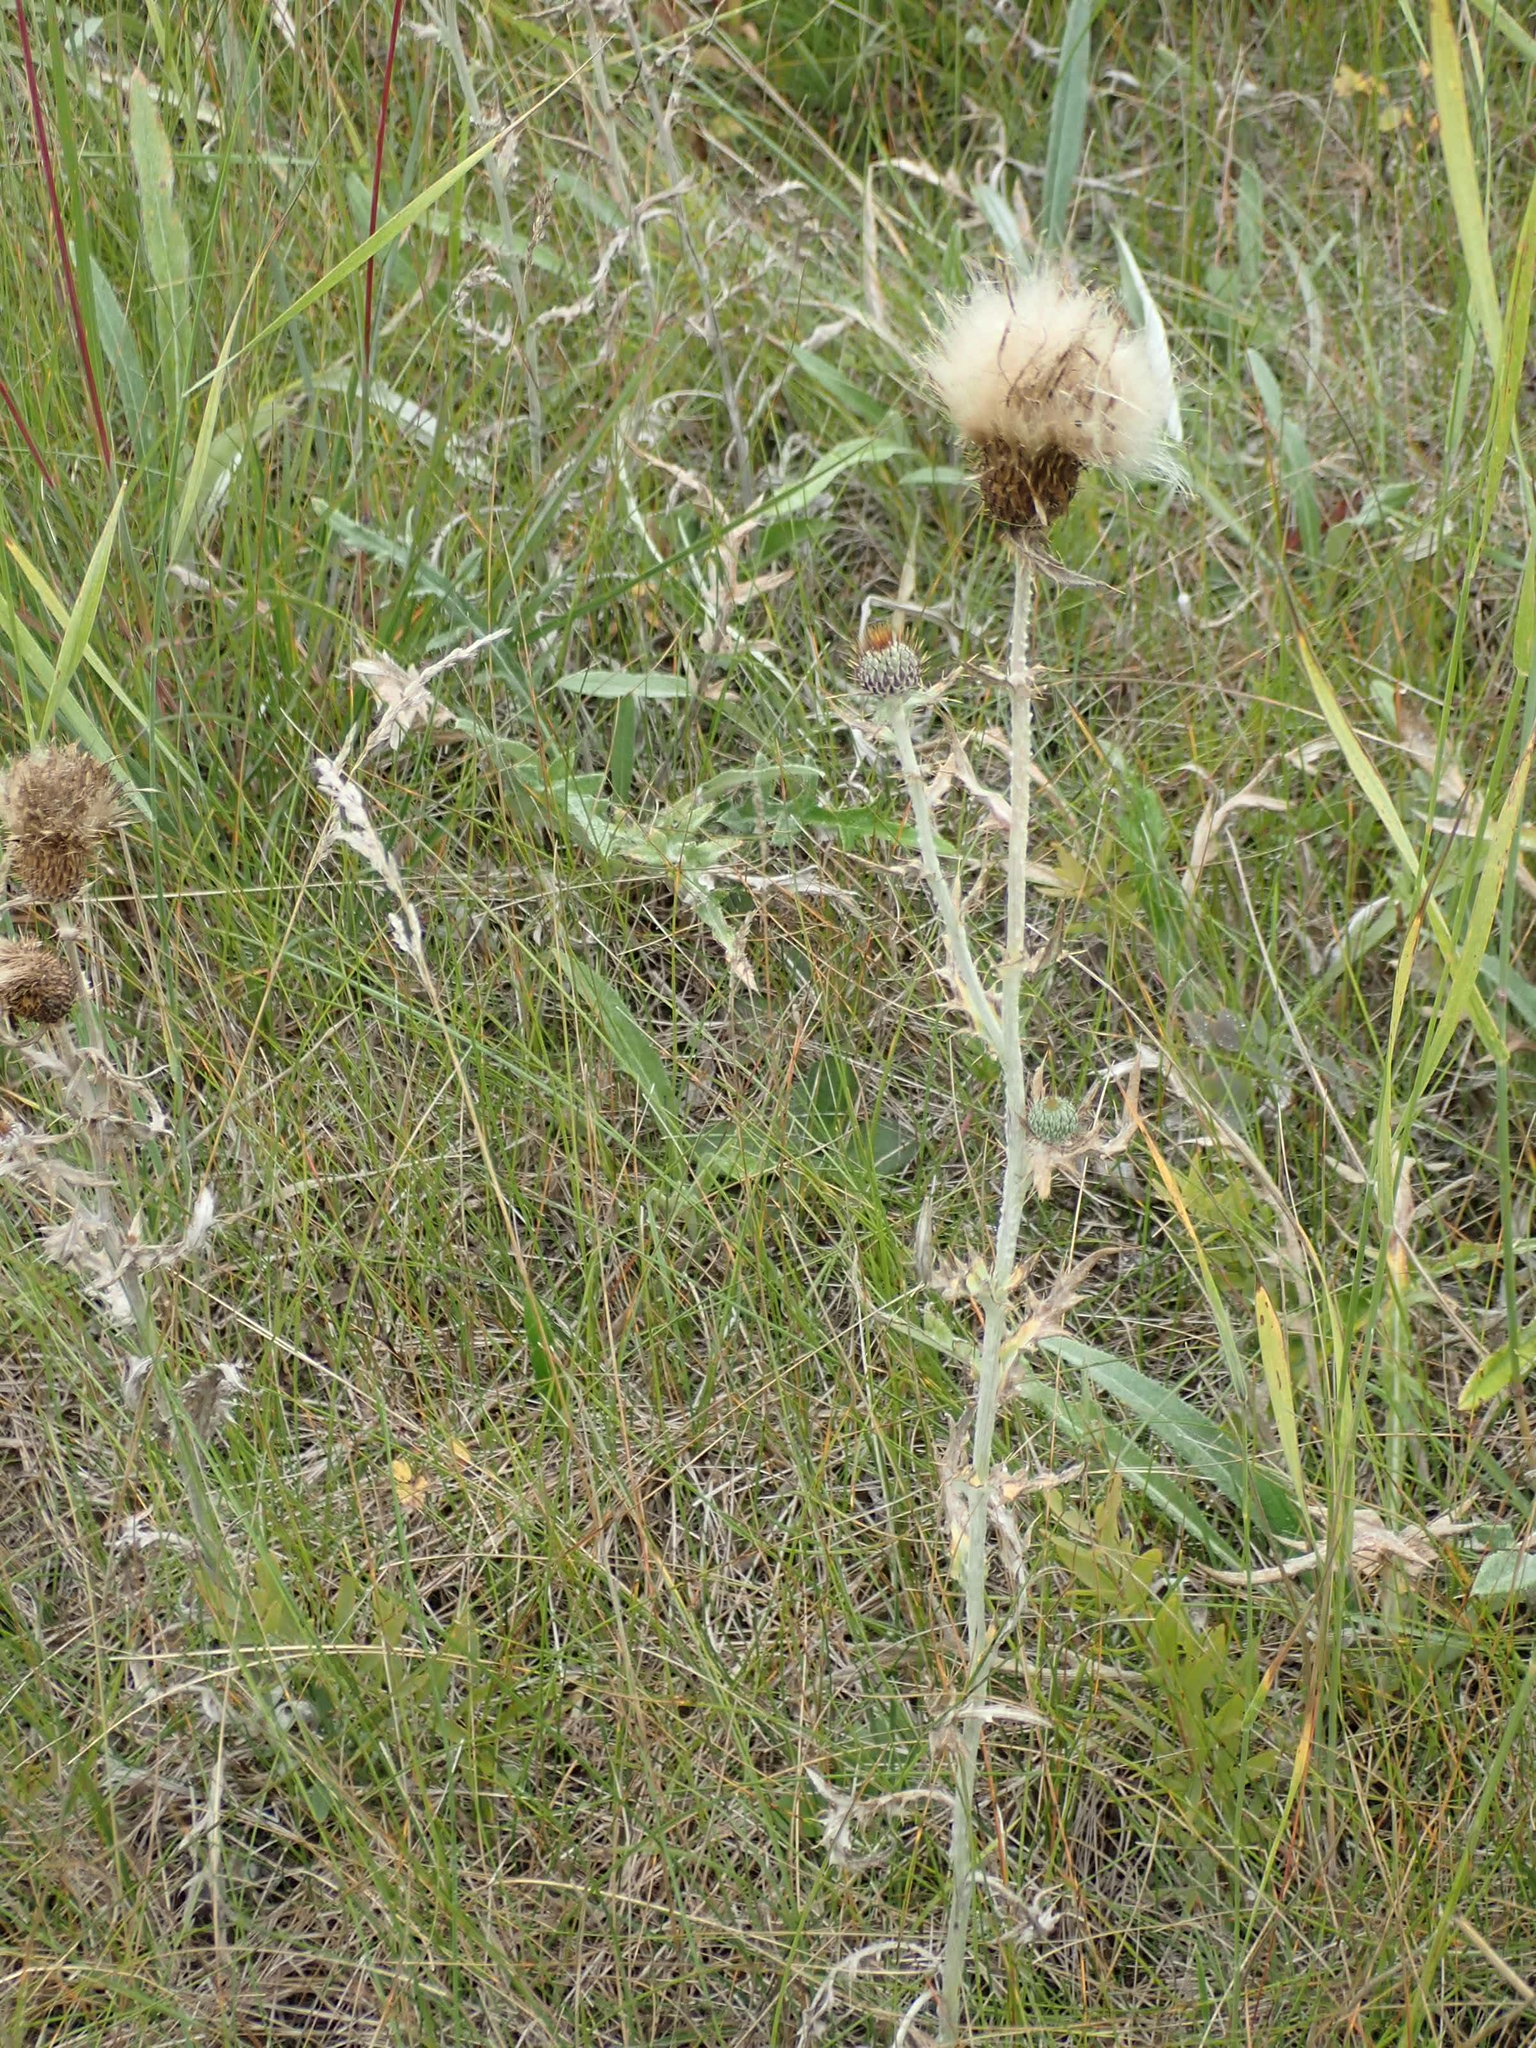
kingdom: Plantae
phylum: Tracheophyta
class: Magnoliopsida
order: Asterales
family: Asteraceae
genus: Cirsium
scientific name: Cirsium flodmanii
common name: Flodman's thistle
